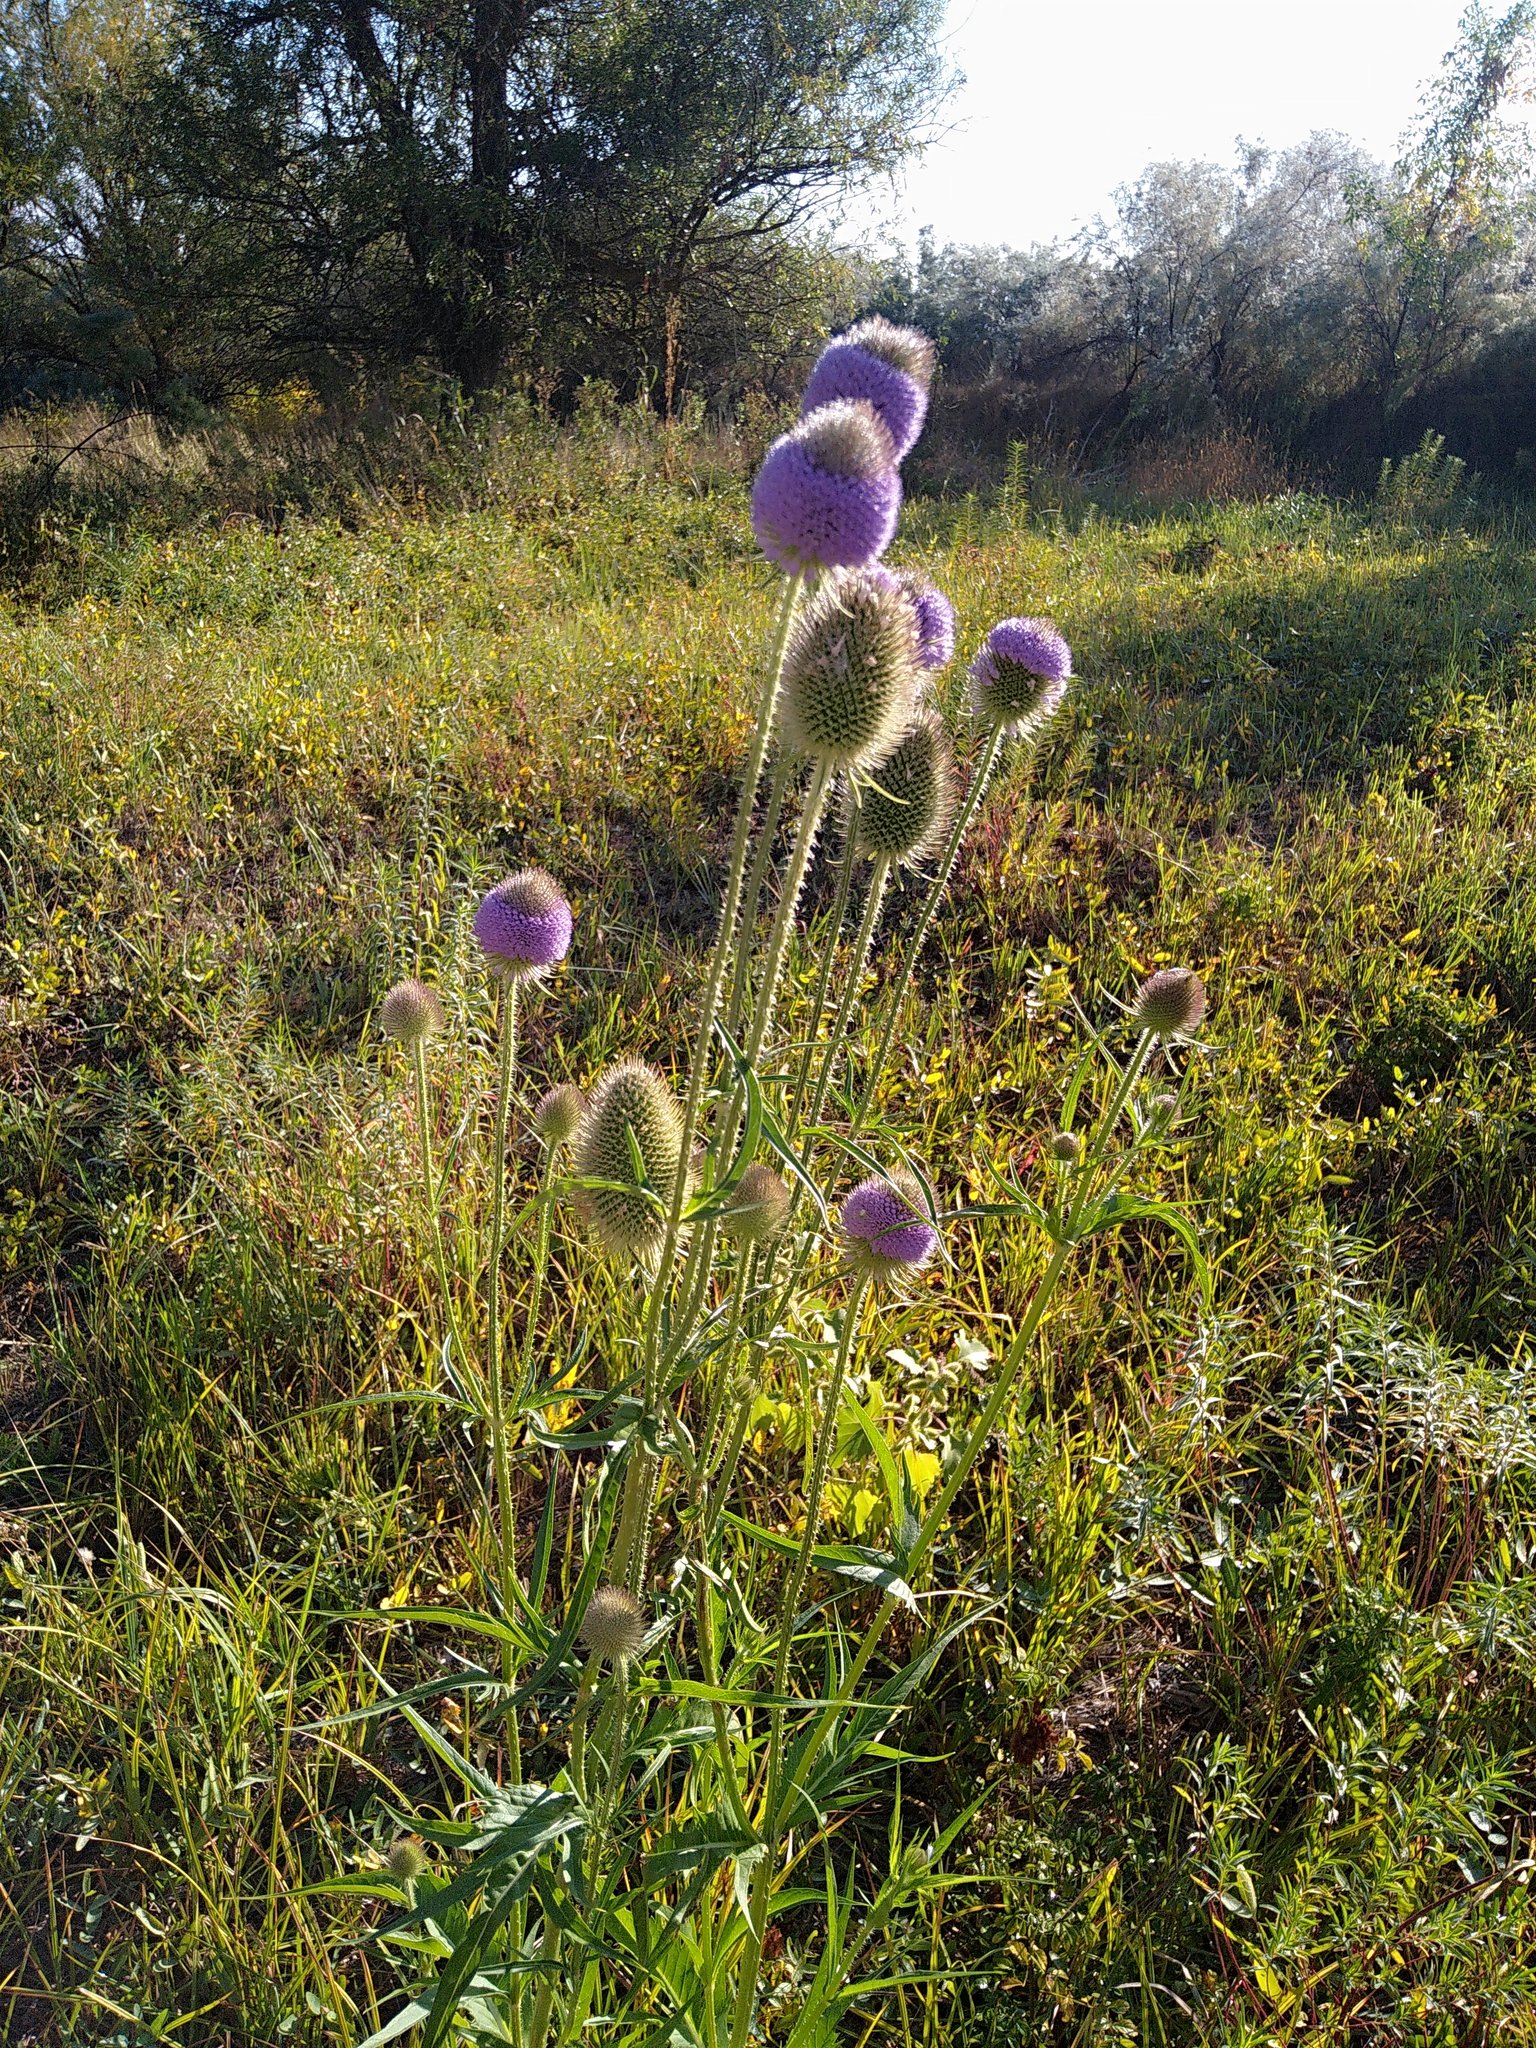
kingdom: Plantae
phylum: Tracheophyta
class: Magnoliopsida
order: Dipsacales
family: Caprifoliaceae
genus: Dipsacus
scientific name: Dipsacus
